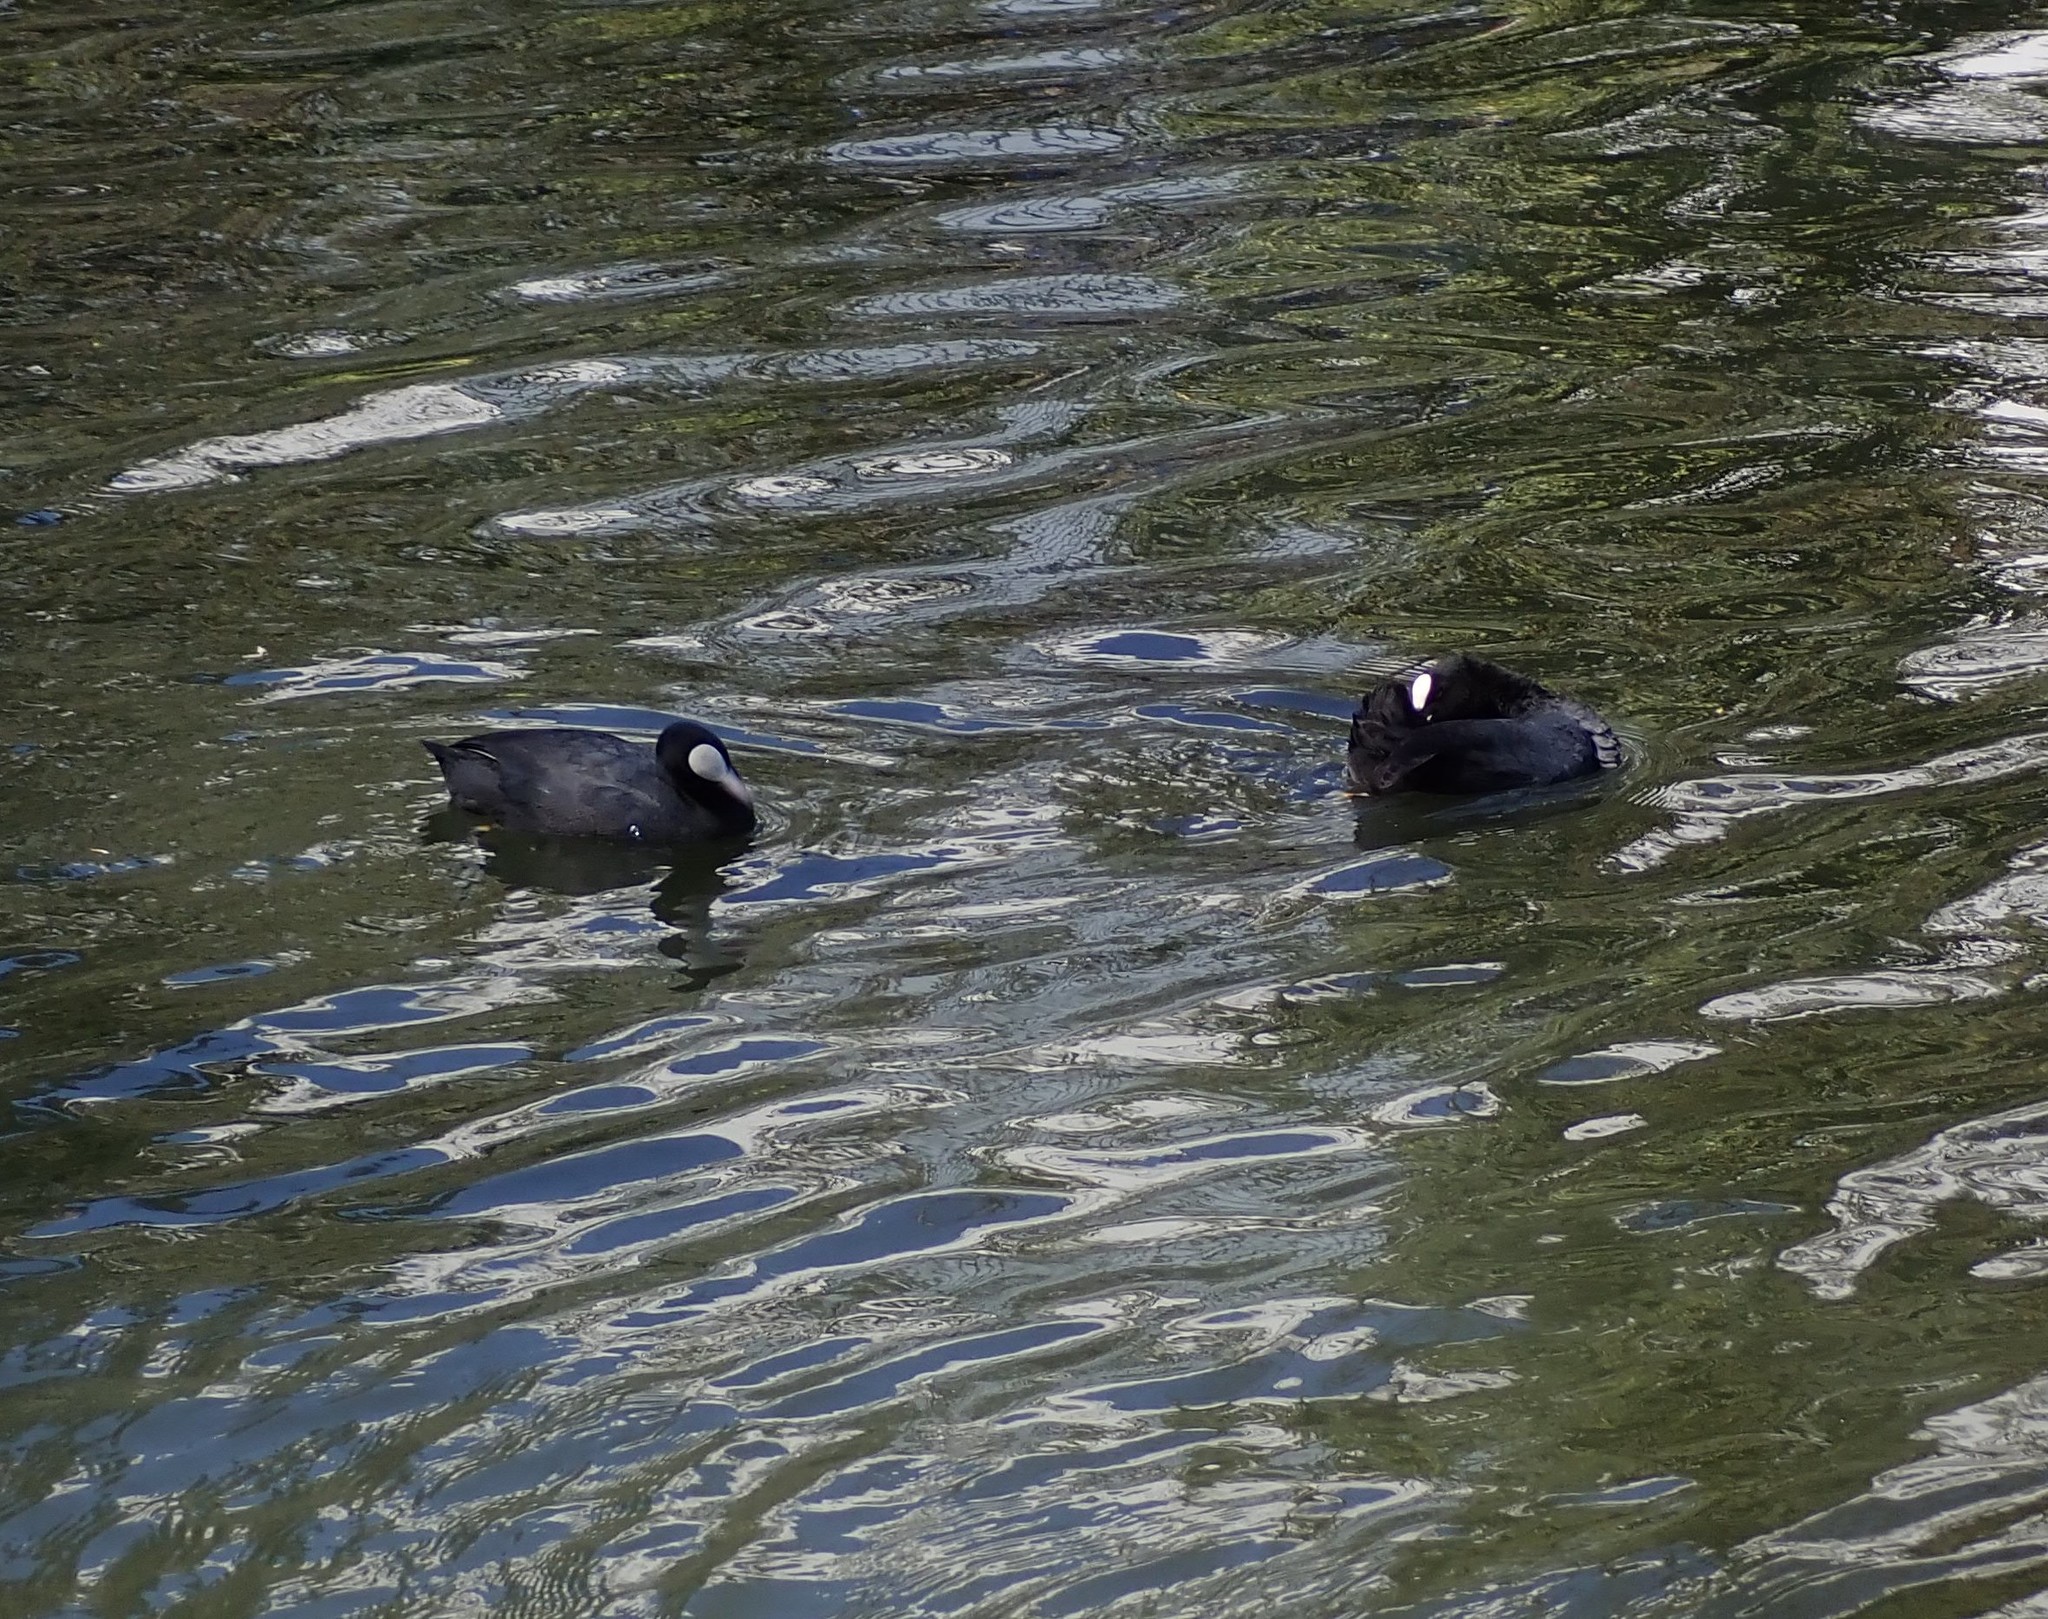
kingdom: Animalia
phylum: Chordata
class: Aves
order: Gruiformes
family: Rallidae
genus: Fulica
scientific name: Fulica atra
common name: Eurasian coot
